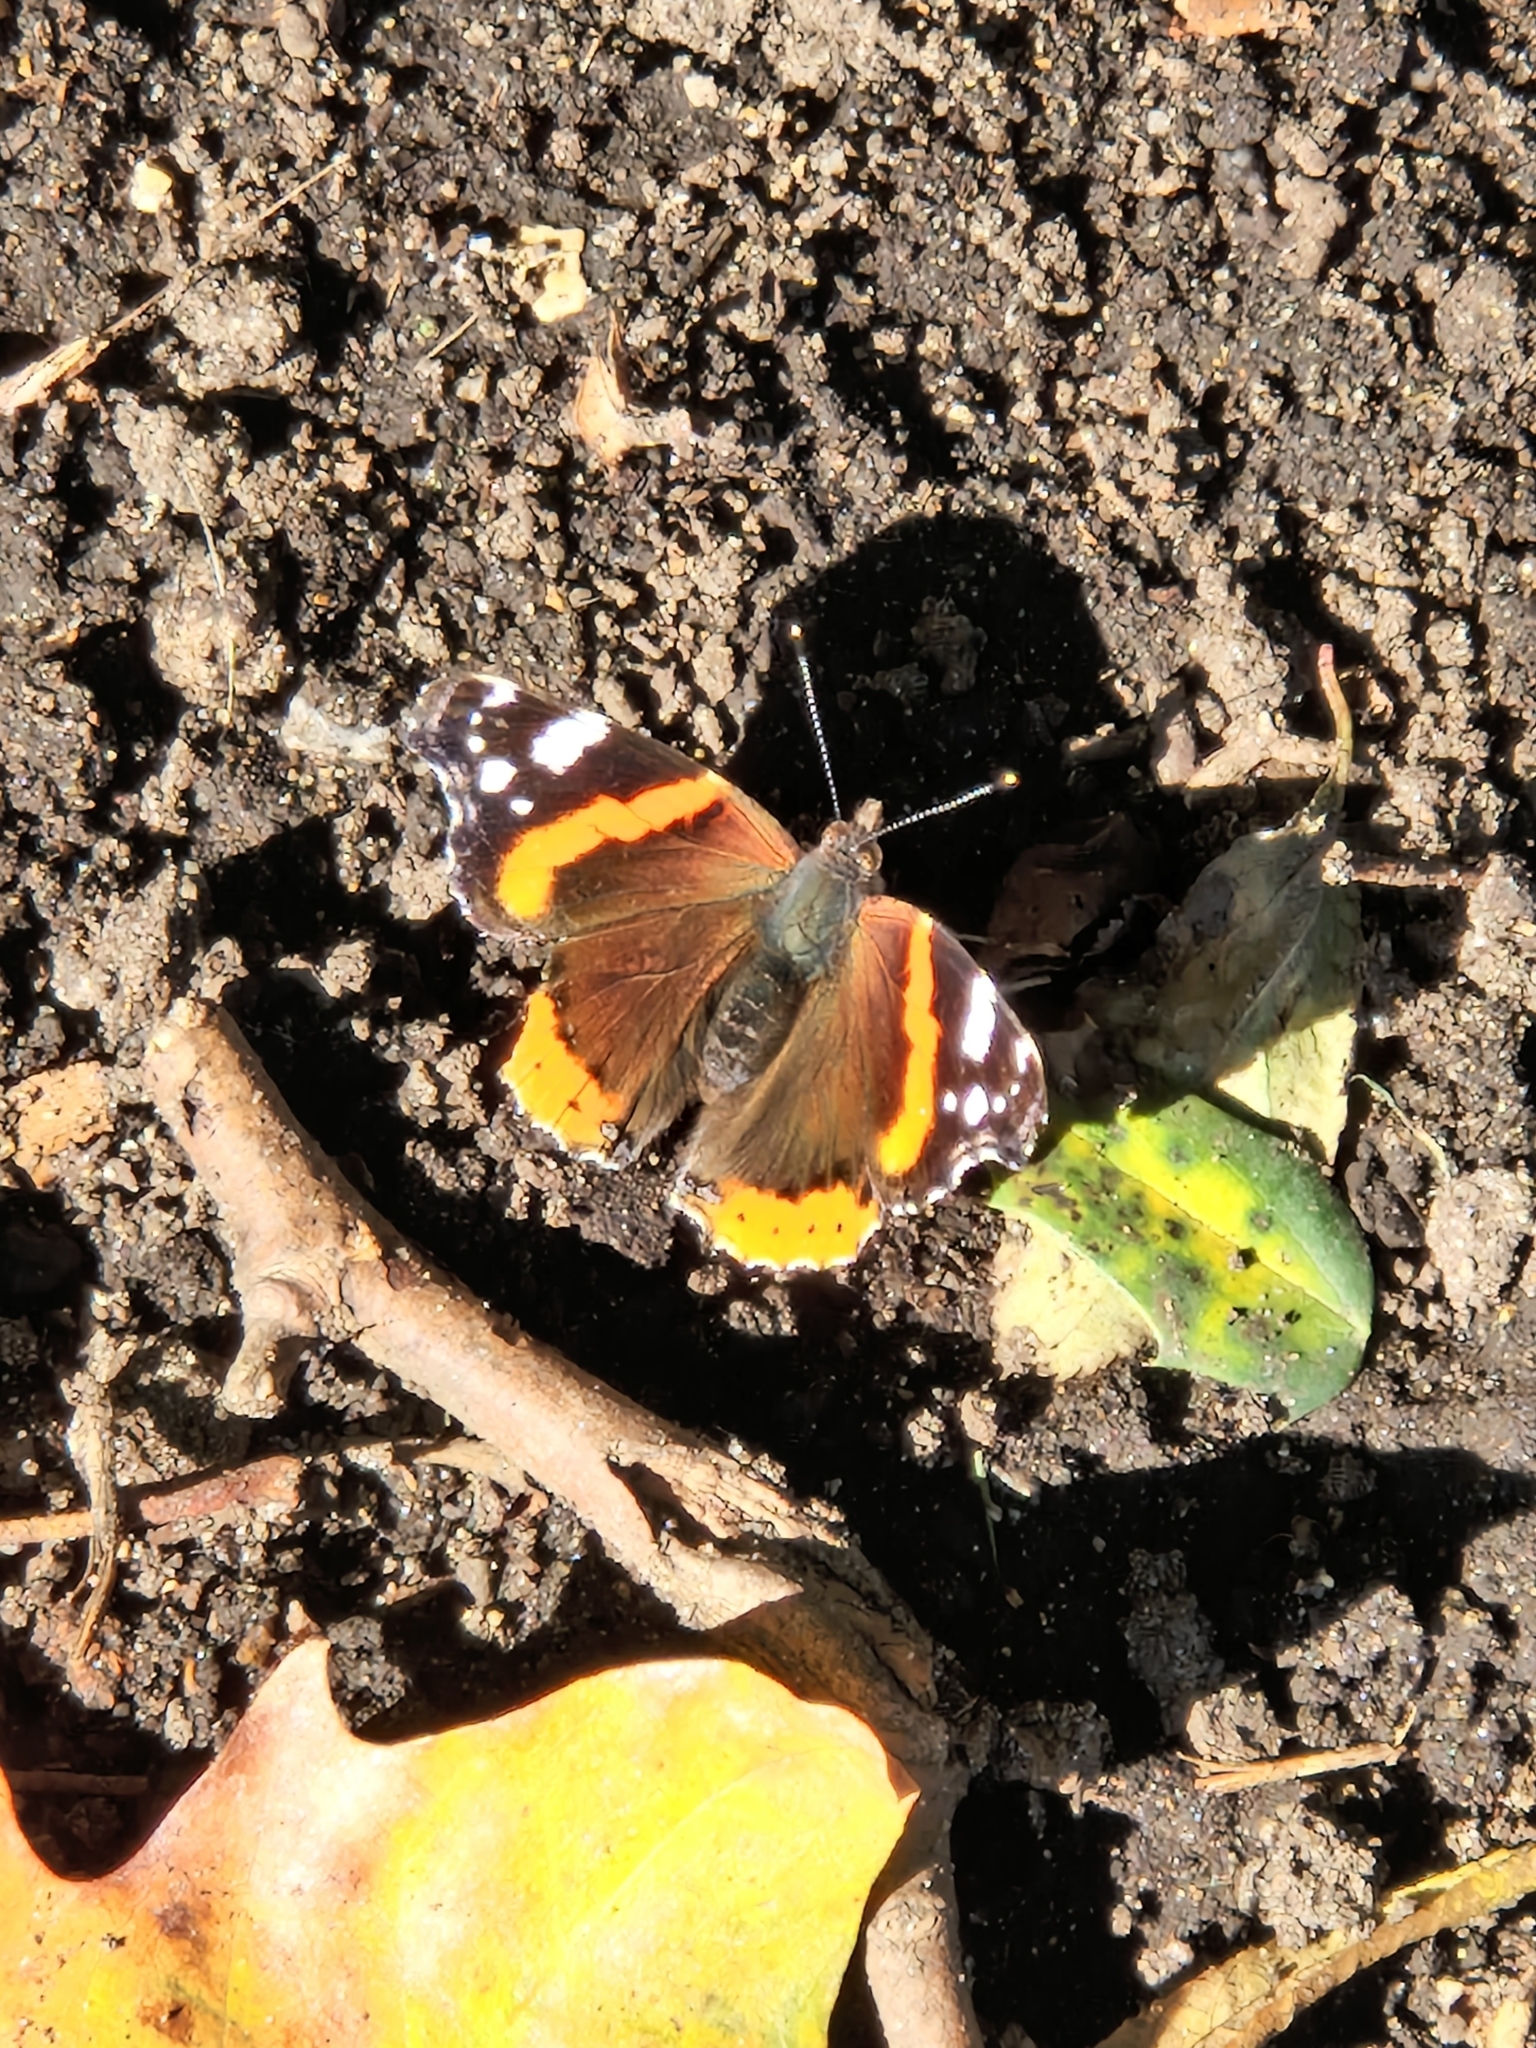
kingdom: Animalia
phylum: Arthropoda
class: Insecta
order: Lepidoptera
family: Nymphalidae
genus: Vanessa
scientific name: Vanessa atalanta
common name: Red admiral
